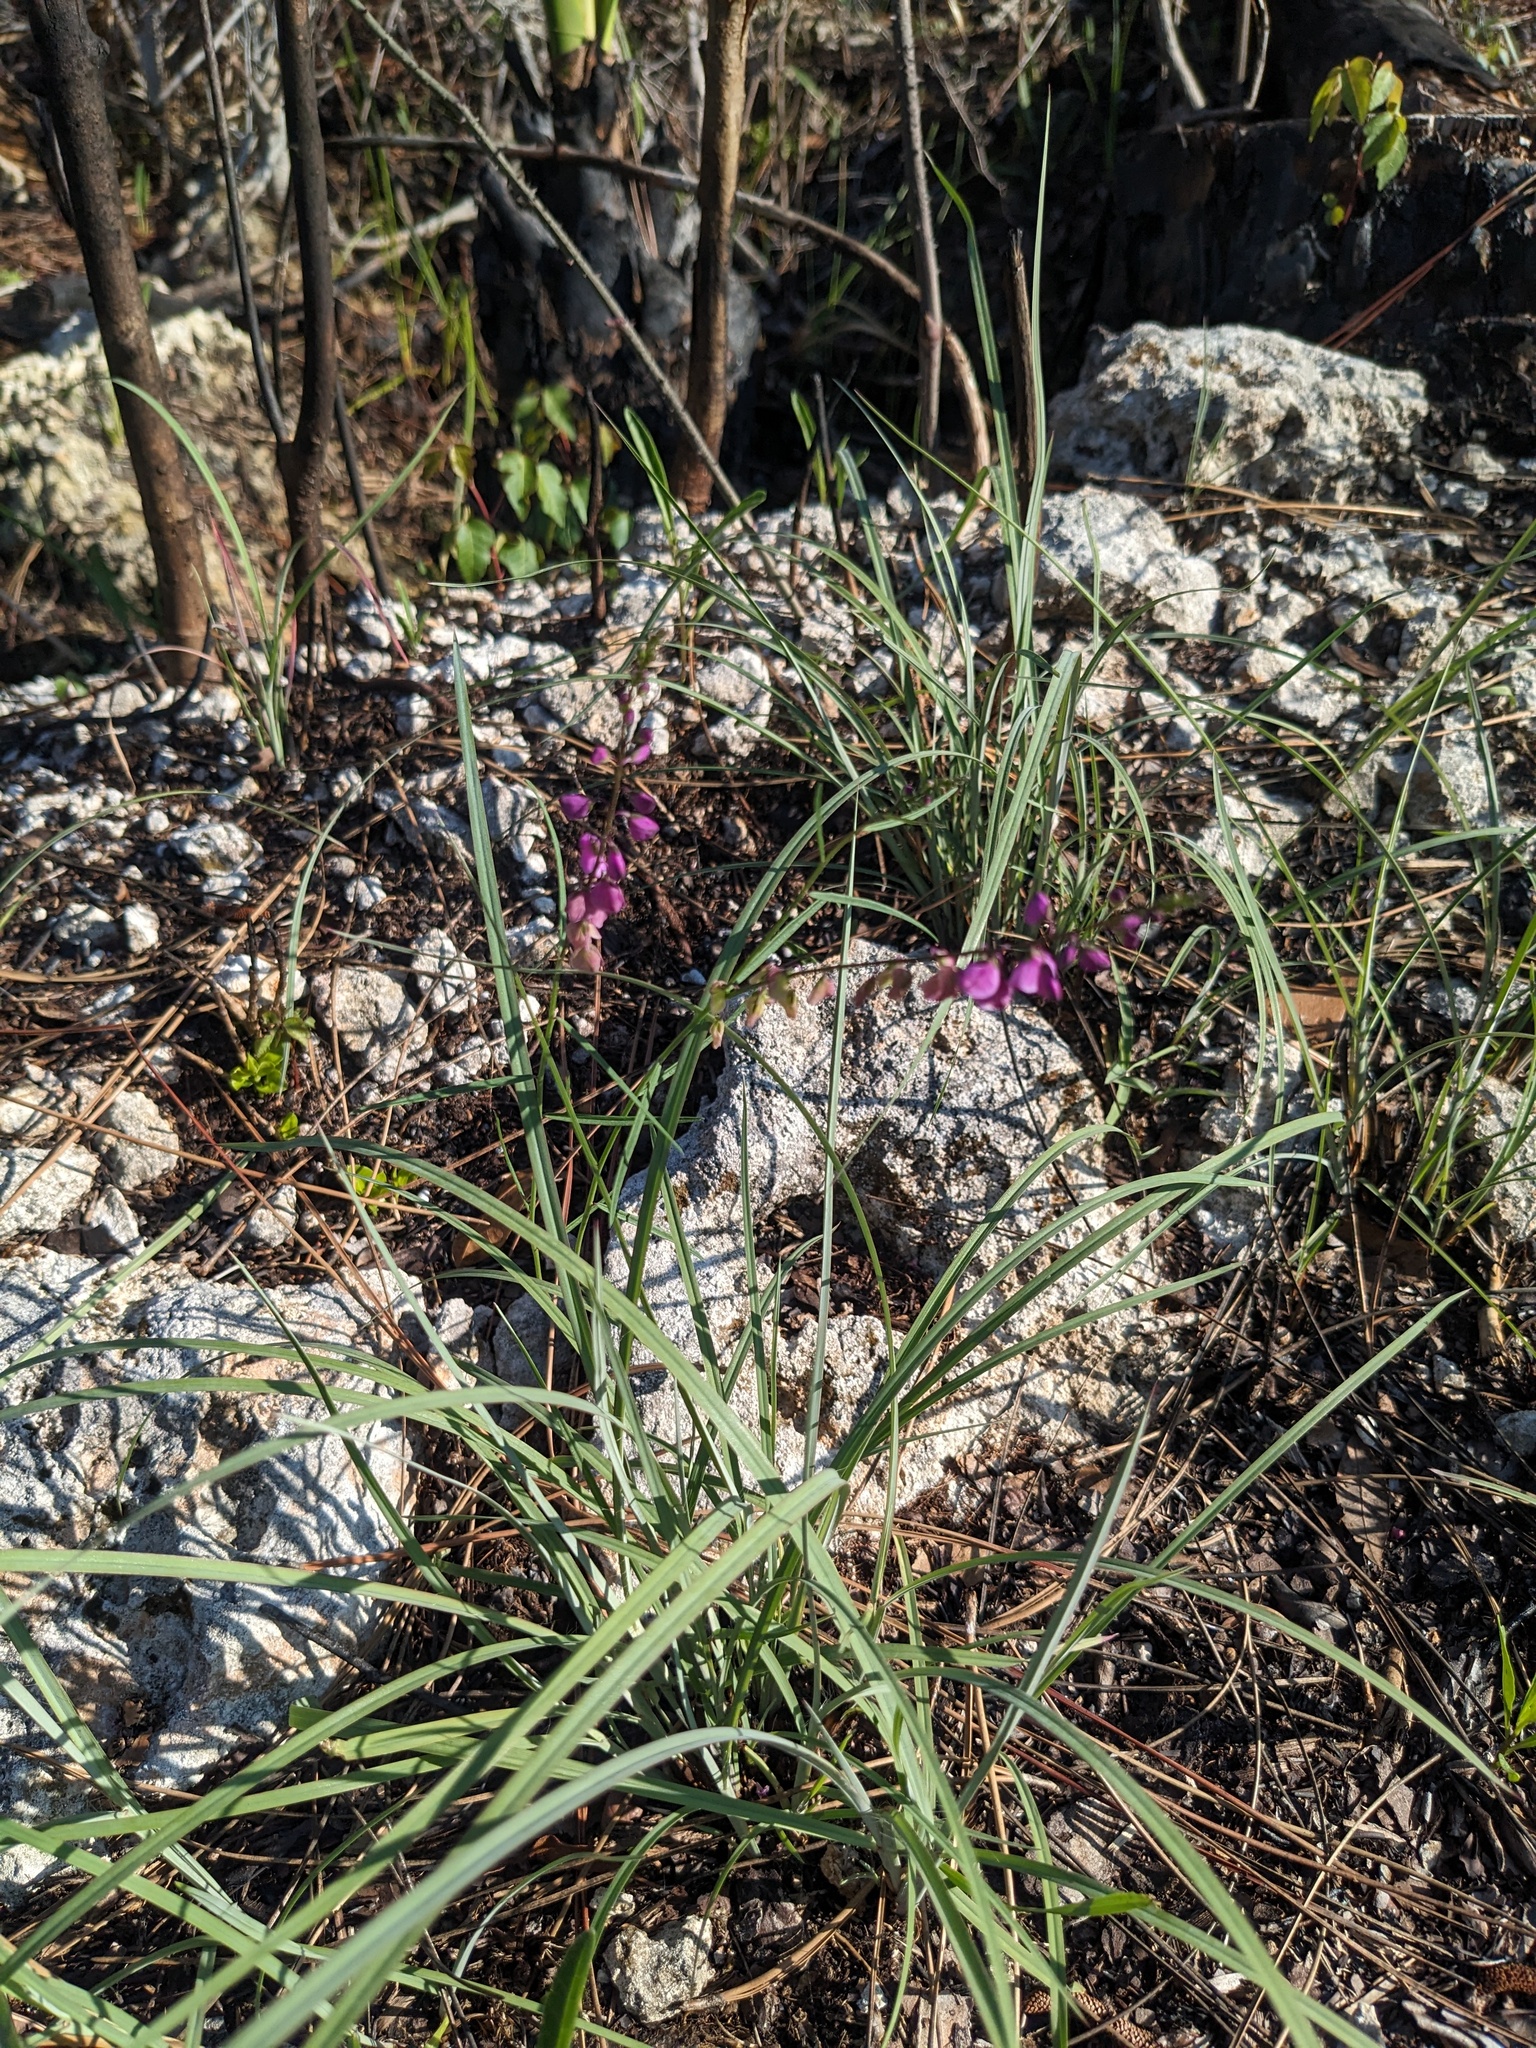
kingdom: Plantae
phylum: Tracheophyta
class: Magnoliopsida
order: Fabales
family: Polygalaceae
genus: Asemeia
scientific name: Asemeia grandiflora
